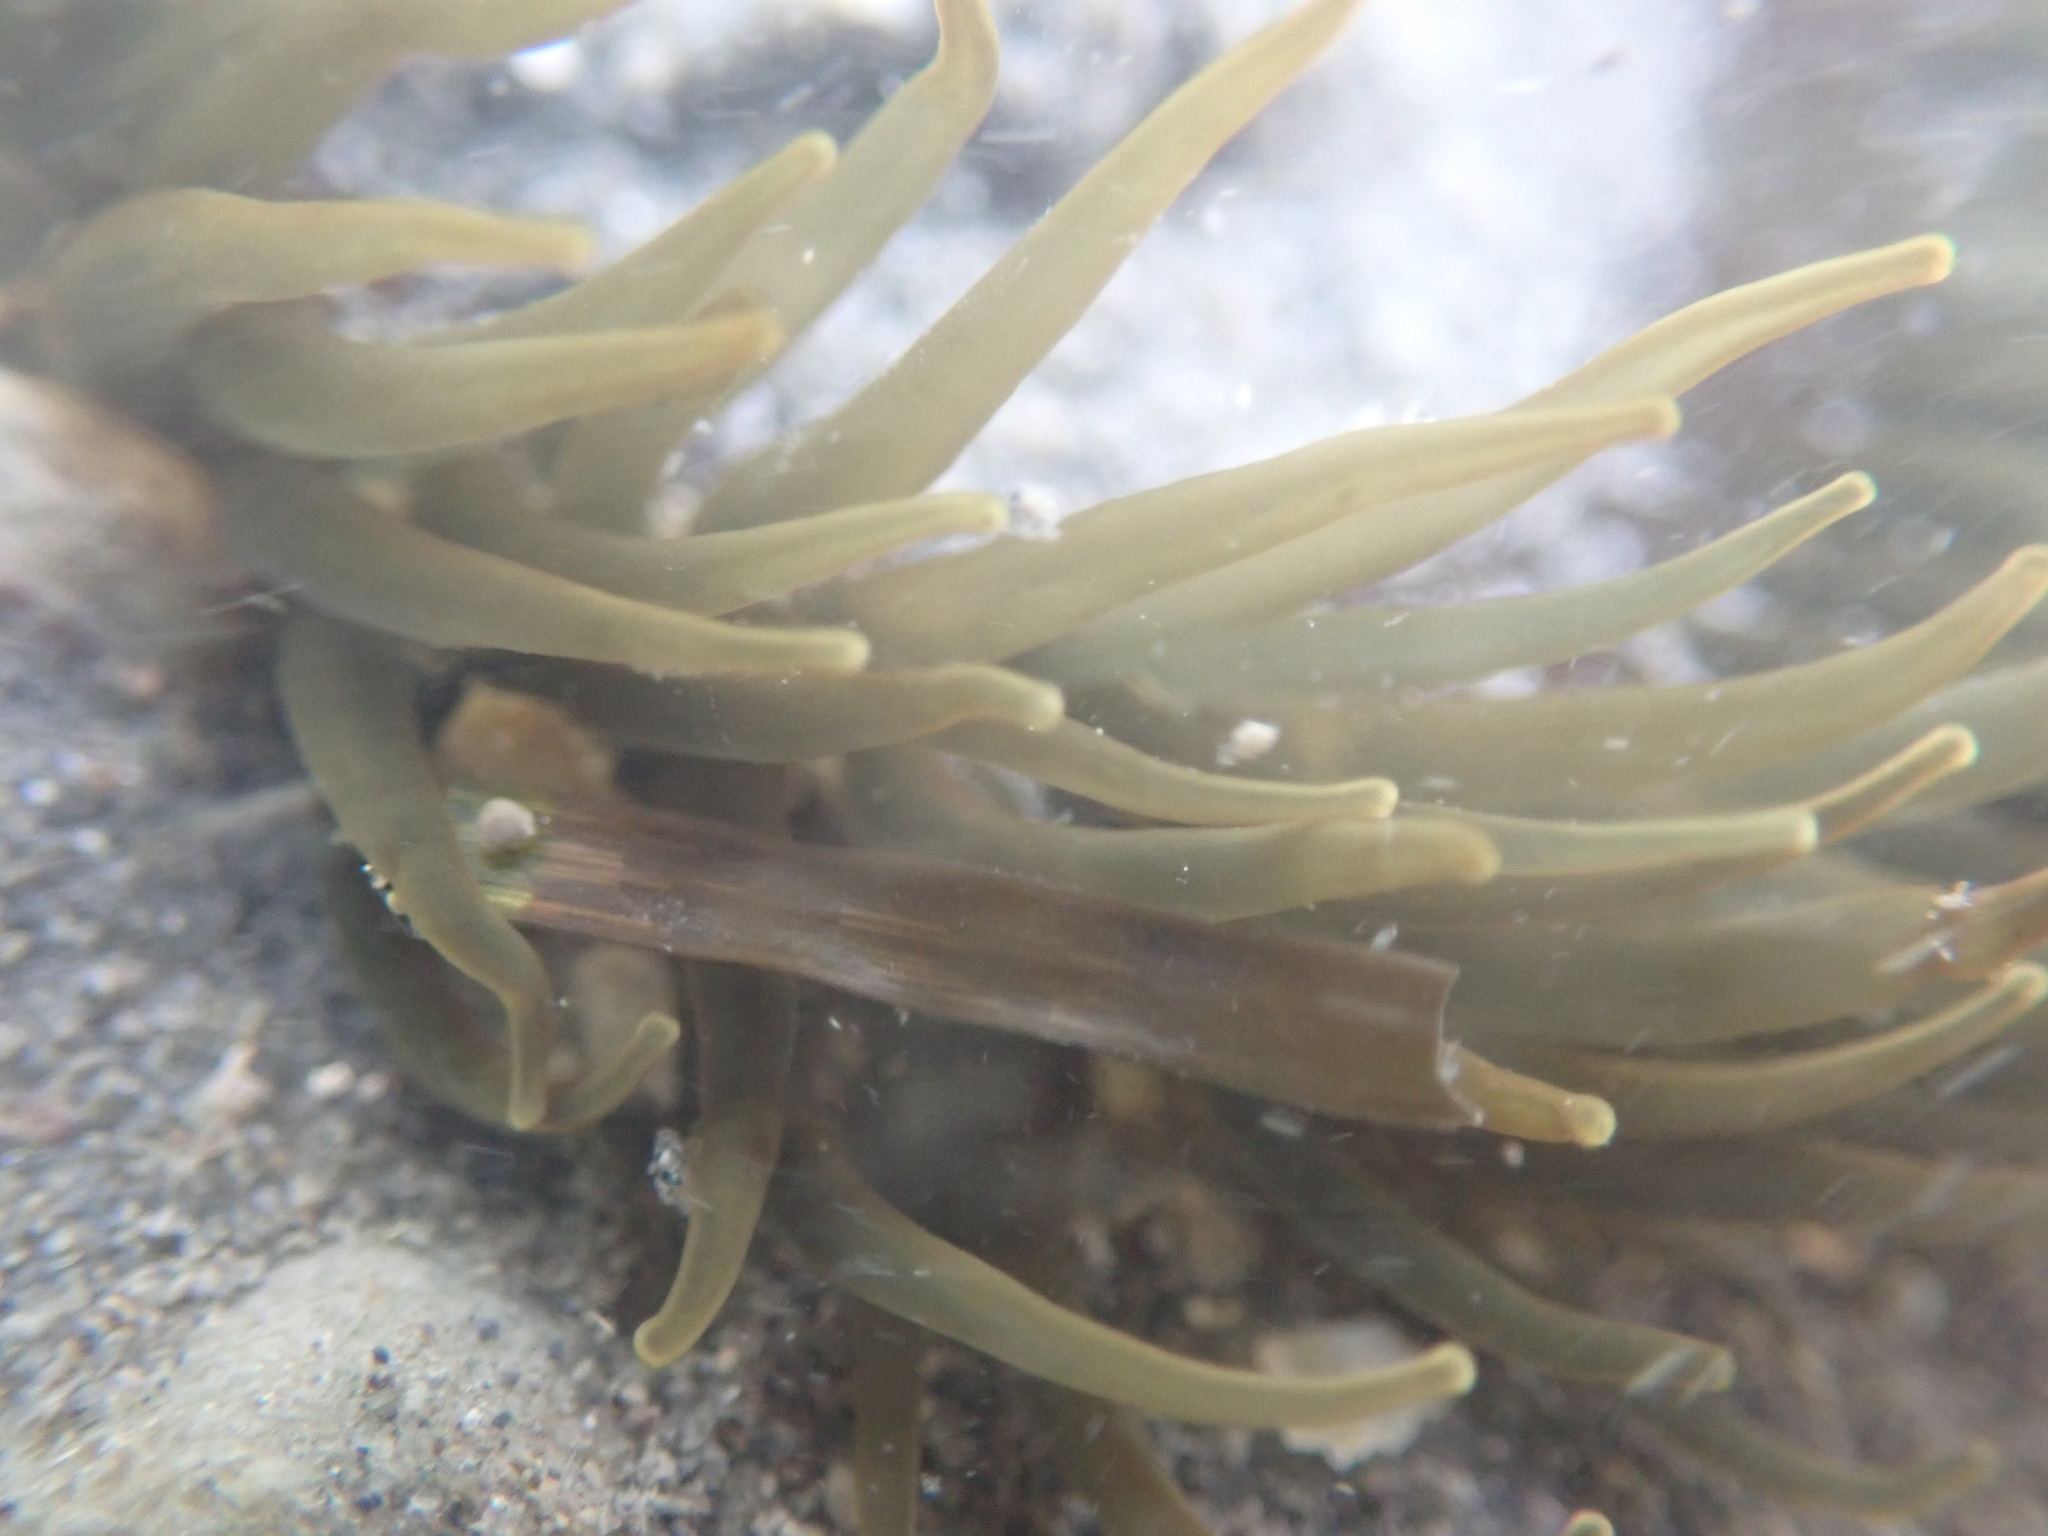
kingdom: Animalia
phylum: Cnidaria
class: Anthozoa
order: Actiniaria
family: Actiniidae
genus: Isactinia
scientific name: Isactinia olivacea
